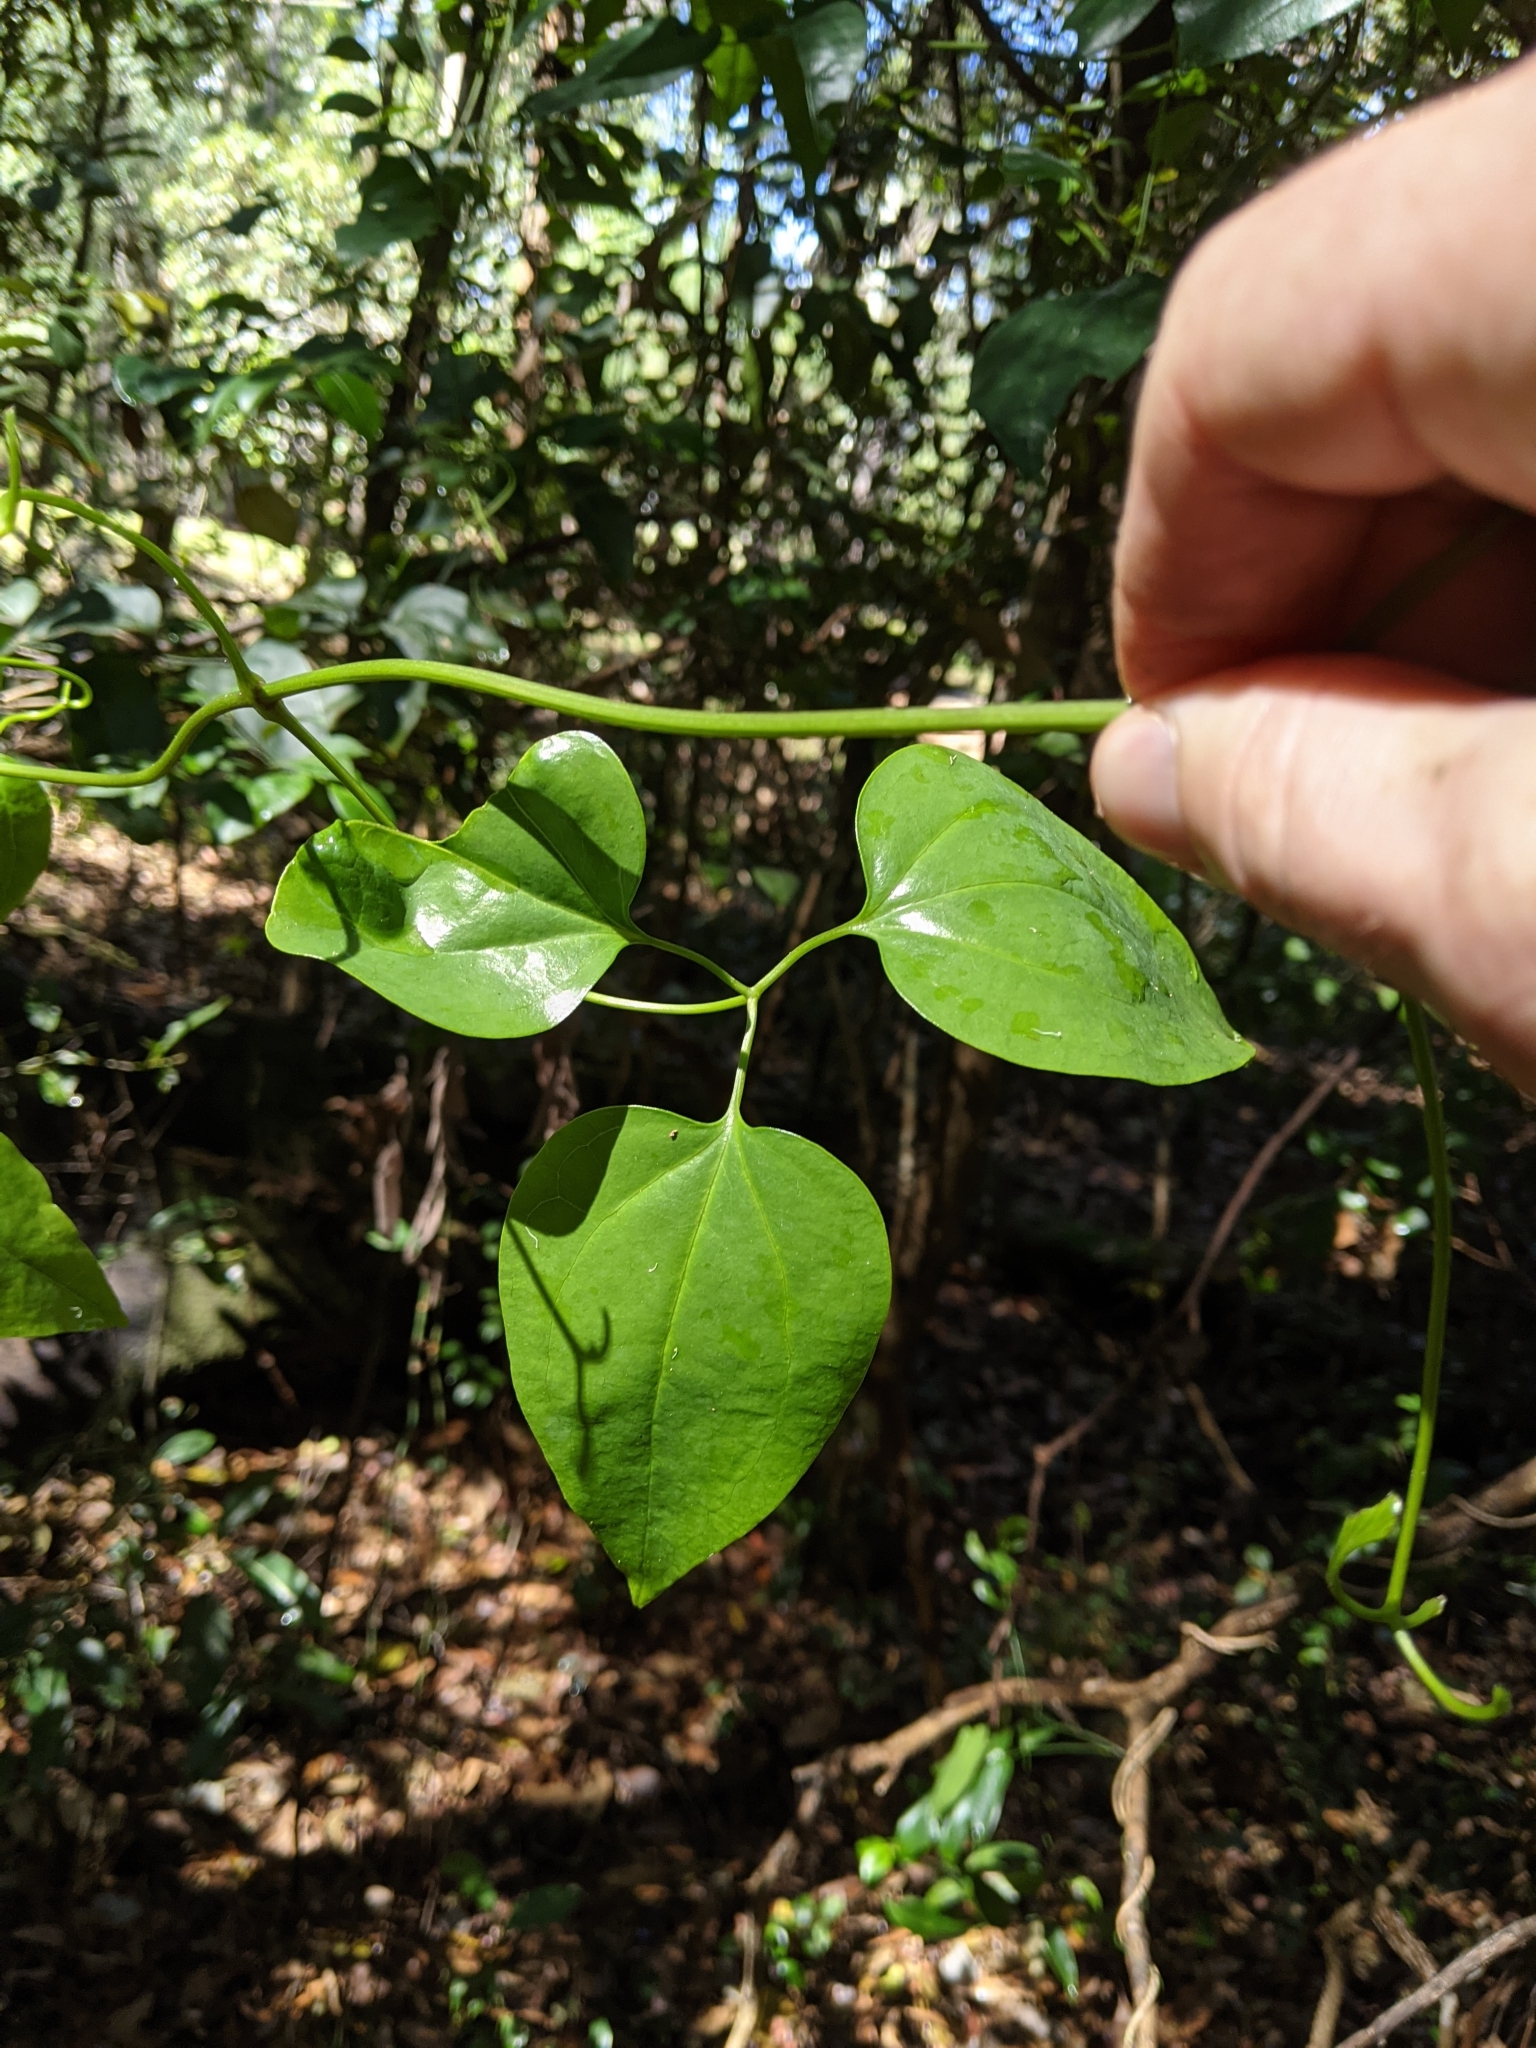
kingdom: Plantae
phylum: Tracheophyta
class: Magnoliopsida
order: Ranunculales
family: Ranunculaceae
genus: Clematis
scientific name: Clematis glycinoides
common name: Forest clematis
